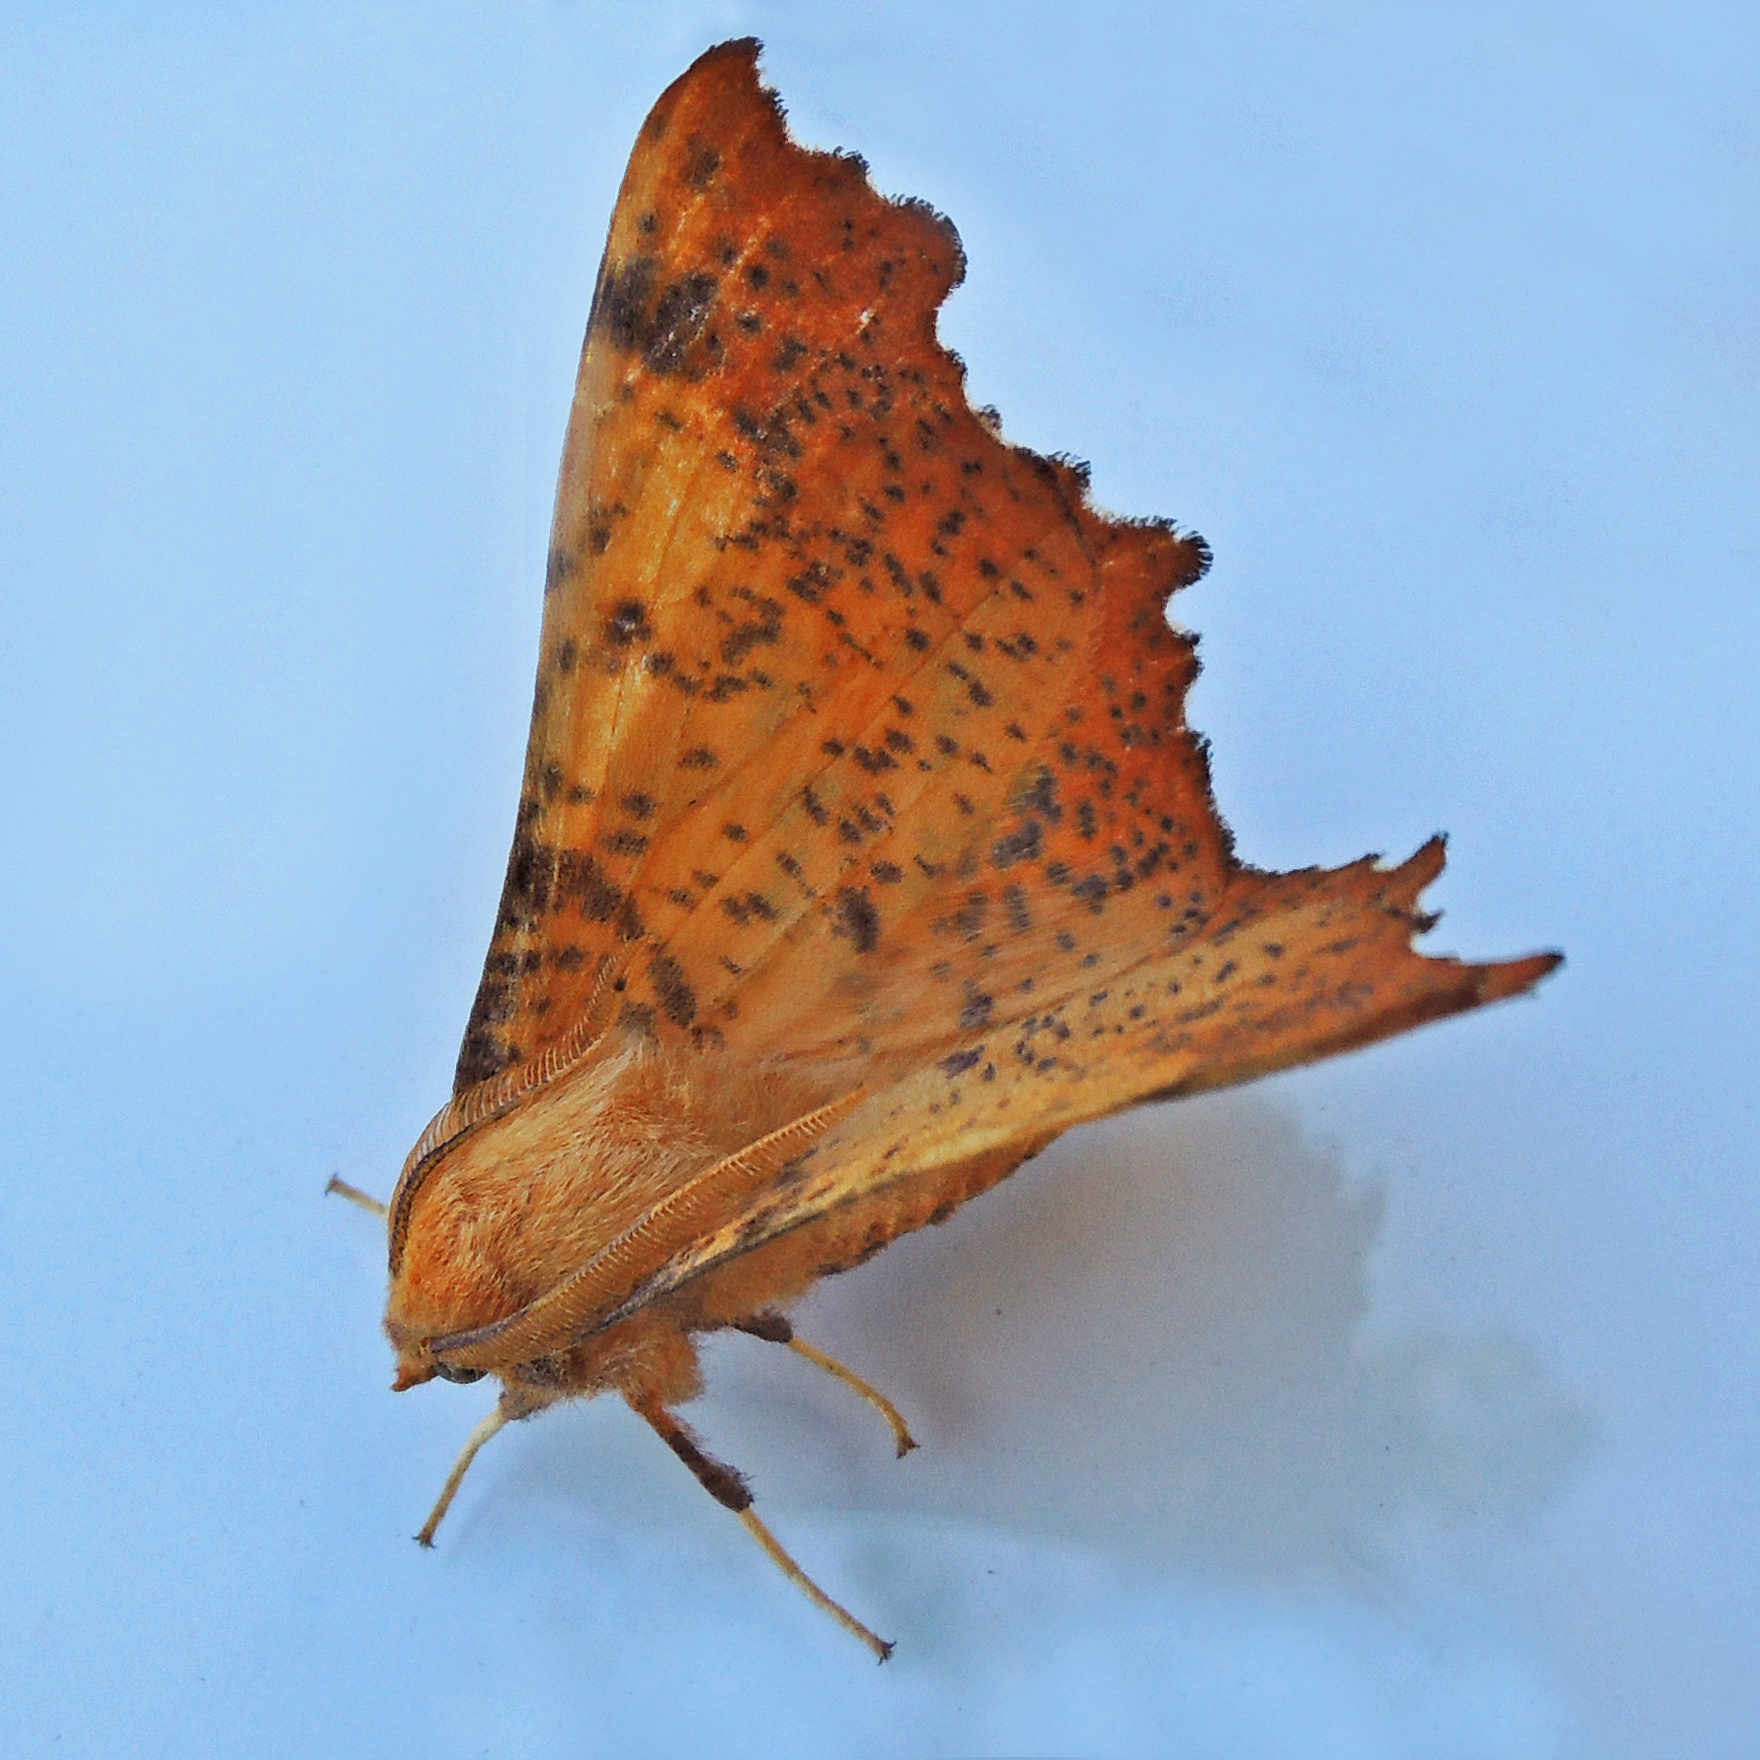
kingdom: Animalia
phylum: Arthropoda
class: Insecta
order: Lepidoptera
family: Geometridae
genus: Ennomos
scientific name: Ennomos magnaria
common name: Maple spanworm
